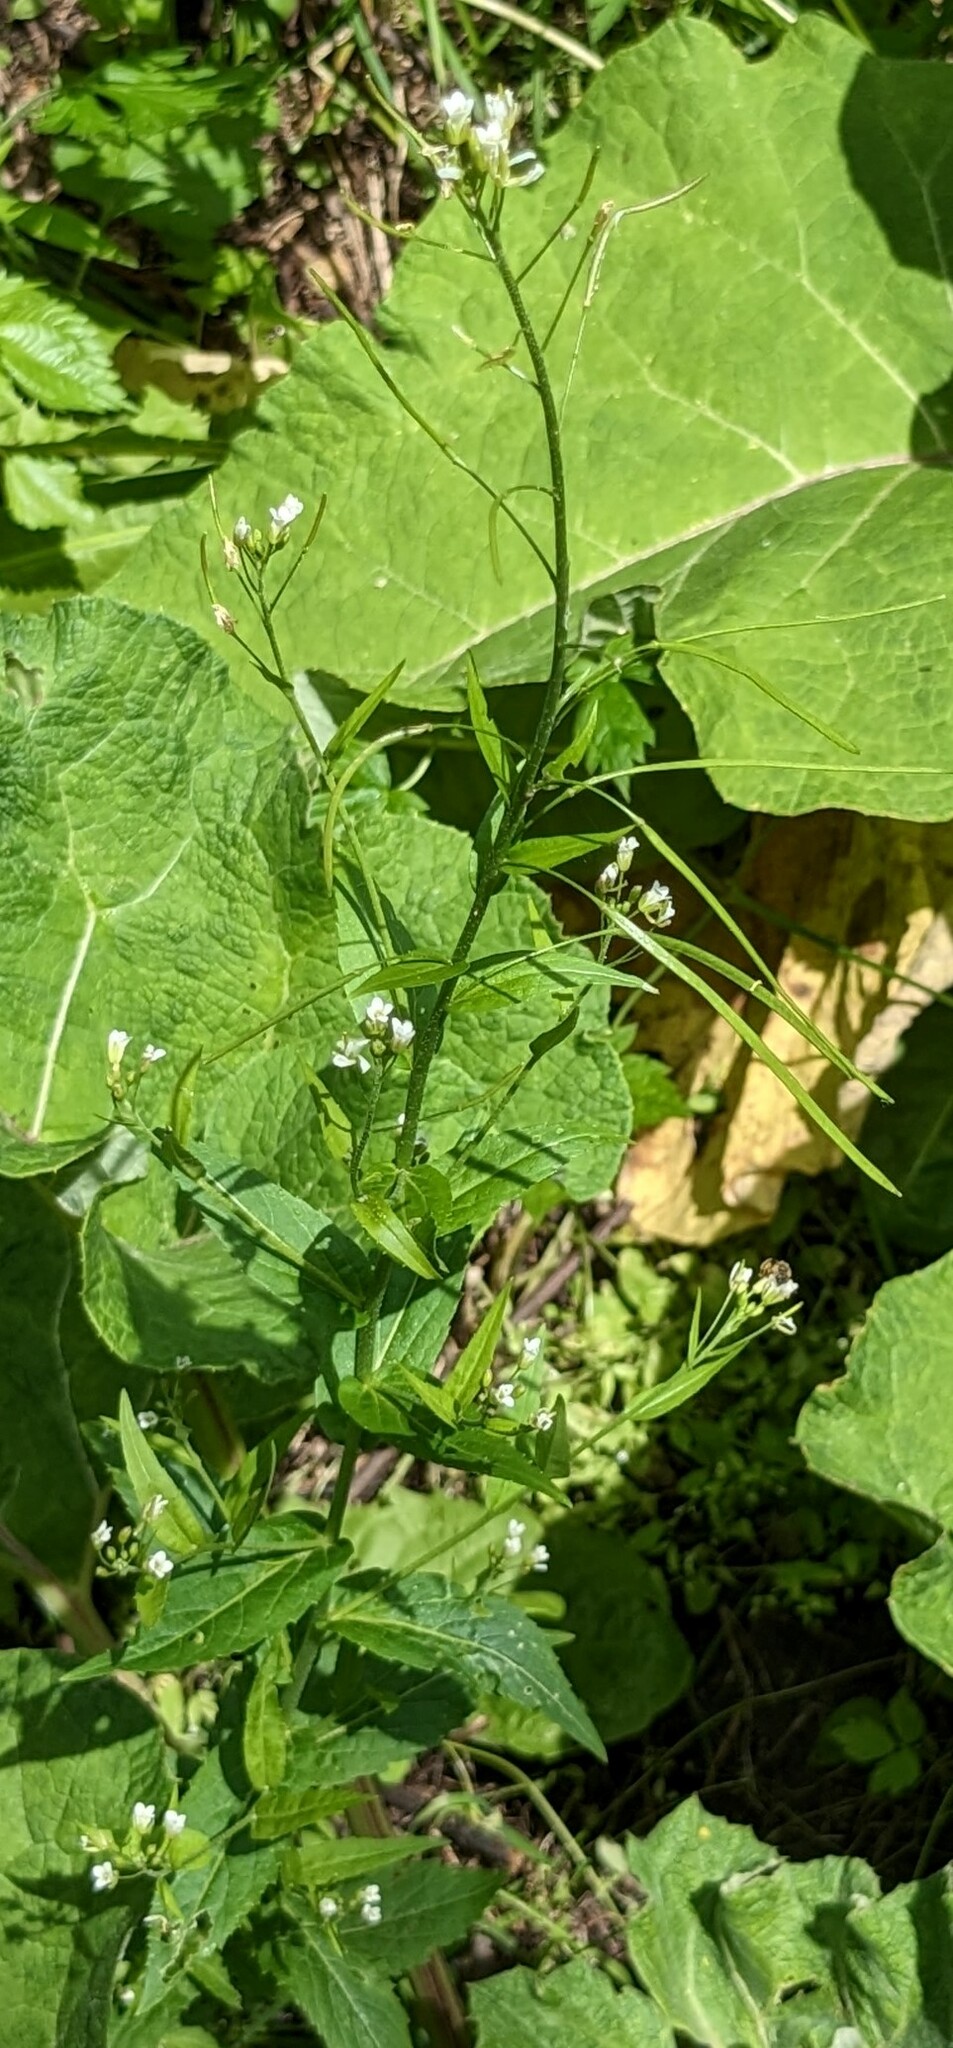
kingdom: Plantae
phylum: Tracheophyta
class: Magnoliopsida
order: Brassicales
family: Brassicaceae
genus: Catolobus
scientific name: Catolobus pendulus
